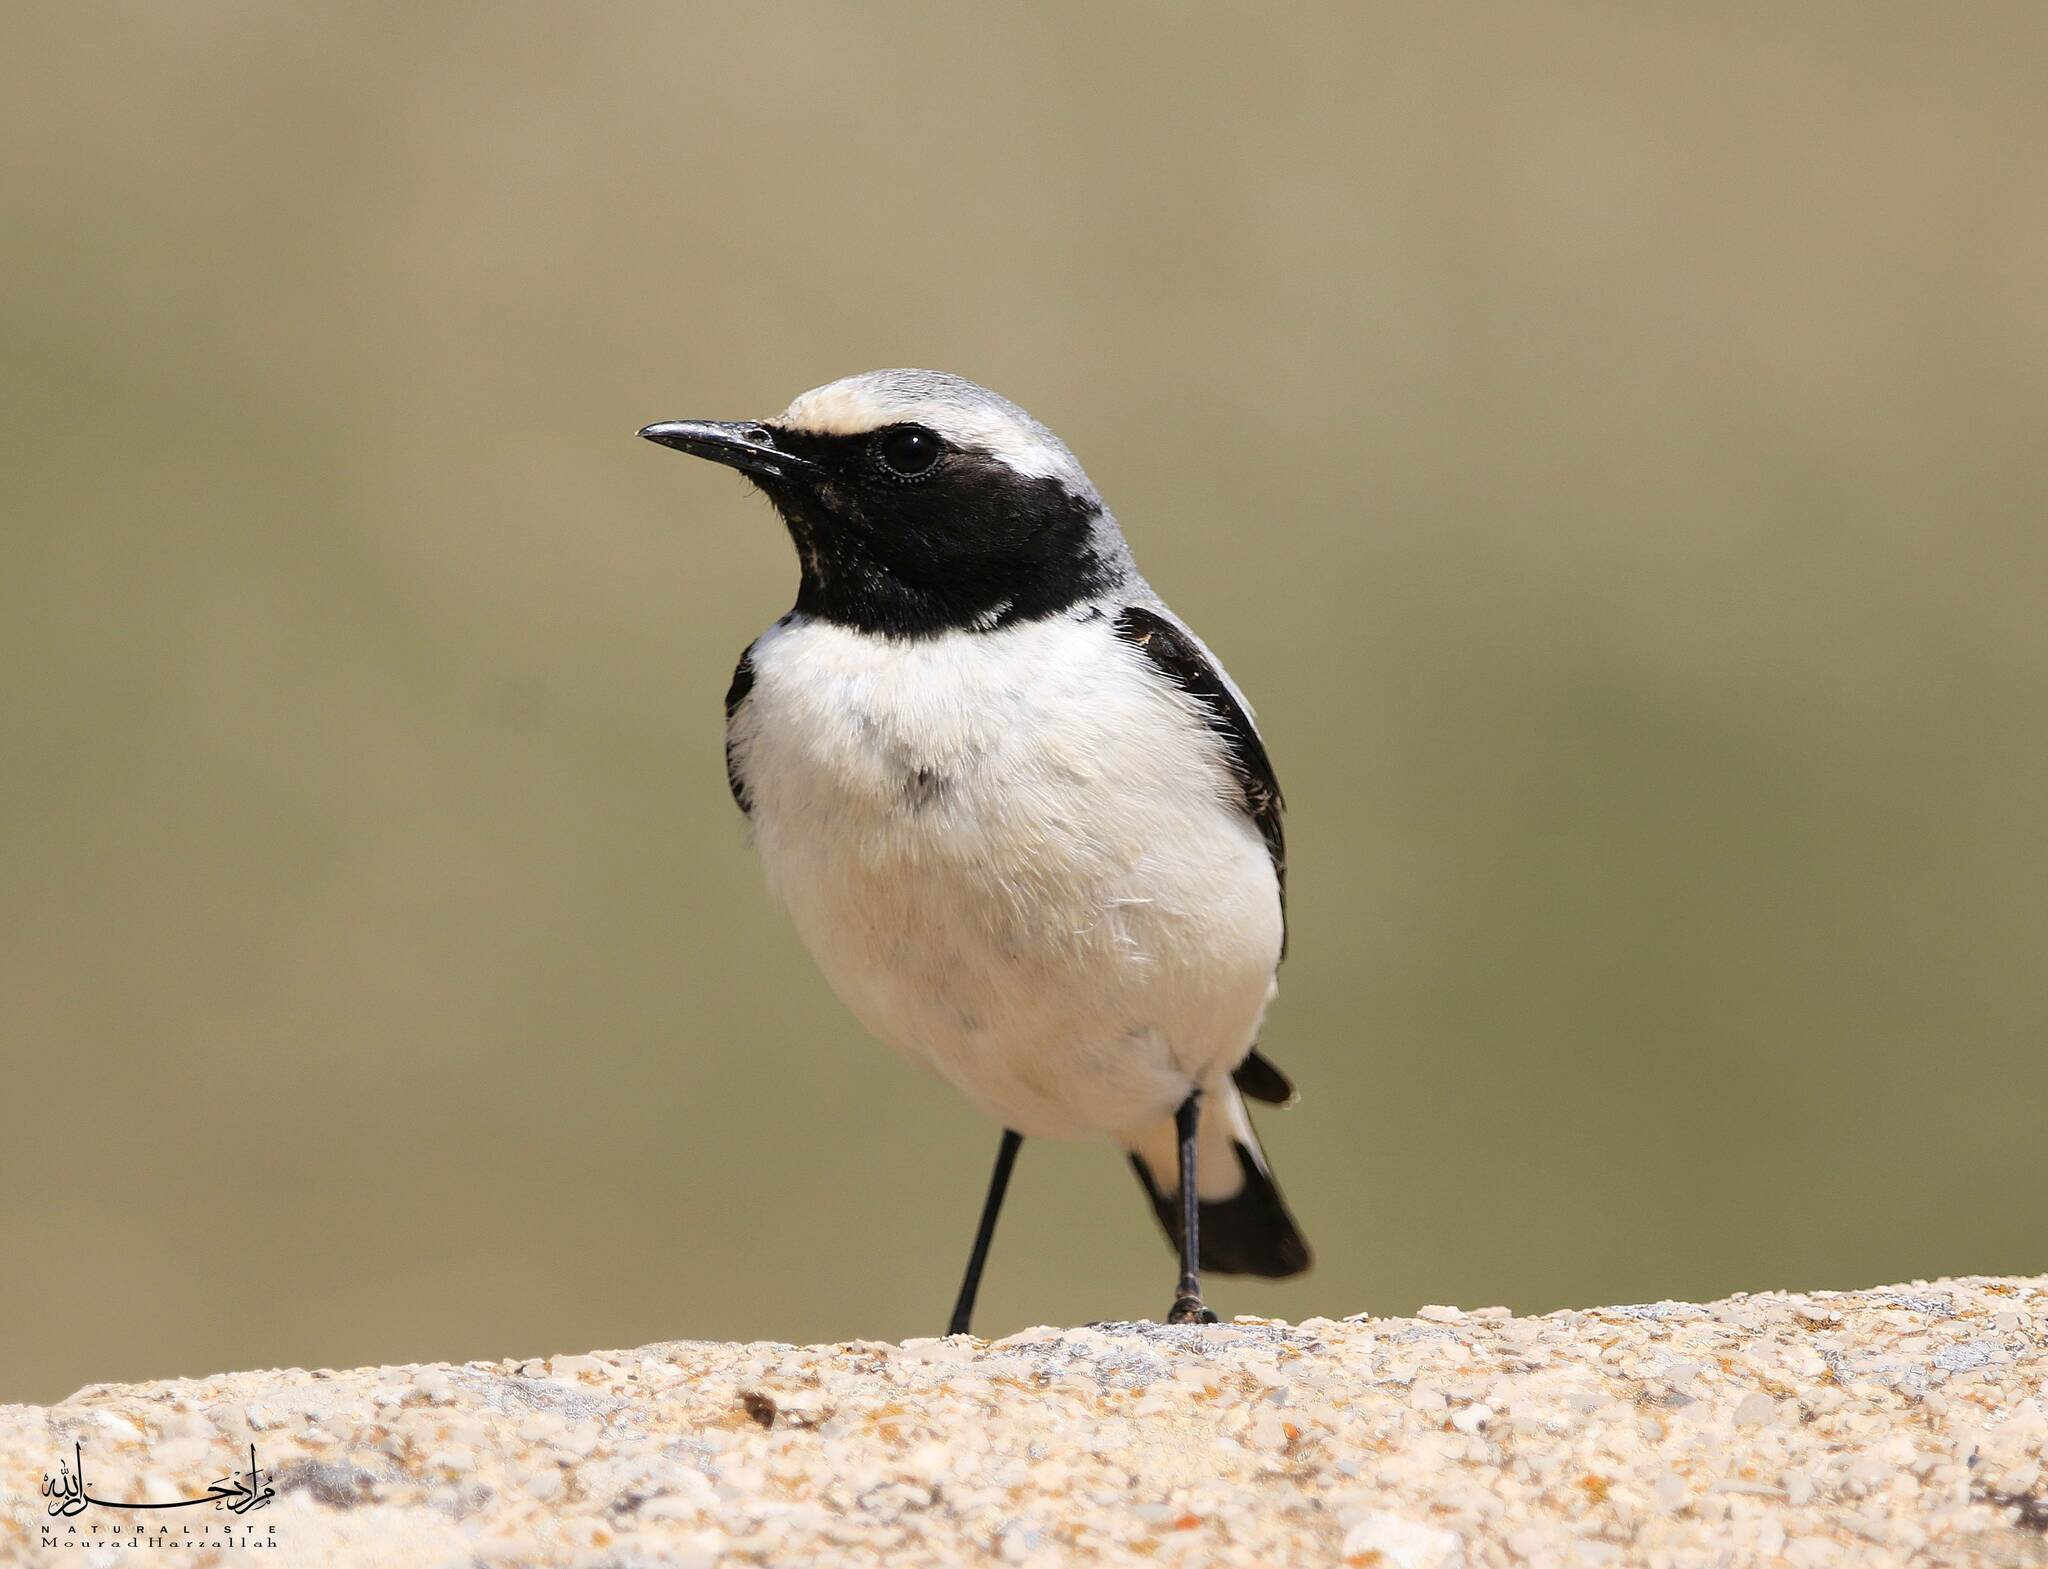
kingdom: Animalia
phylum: Chordata
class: Aves
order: Passeriformes
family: Muscicapidae
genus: Oenanthe
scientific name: Oenanthe oenanthe
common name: Northern wheatear
